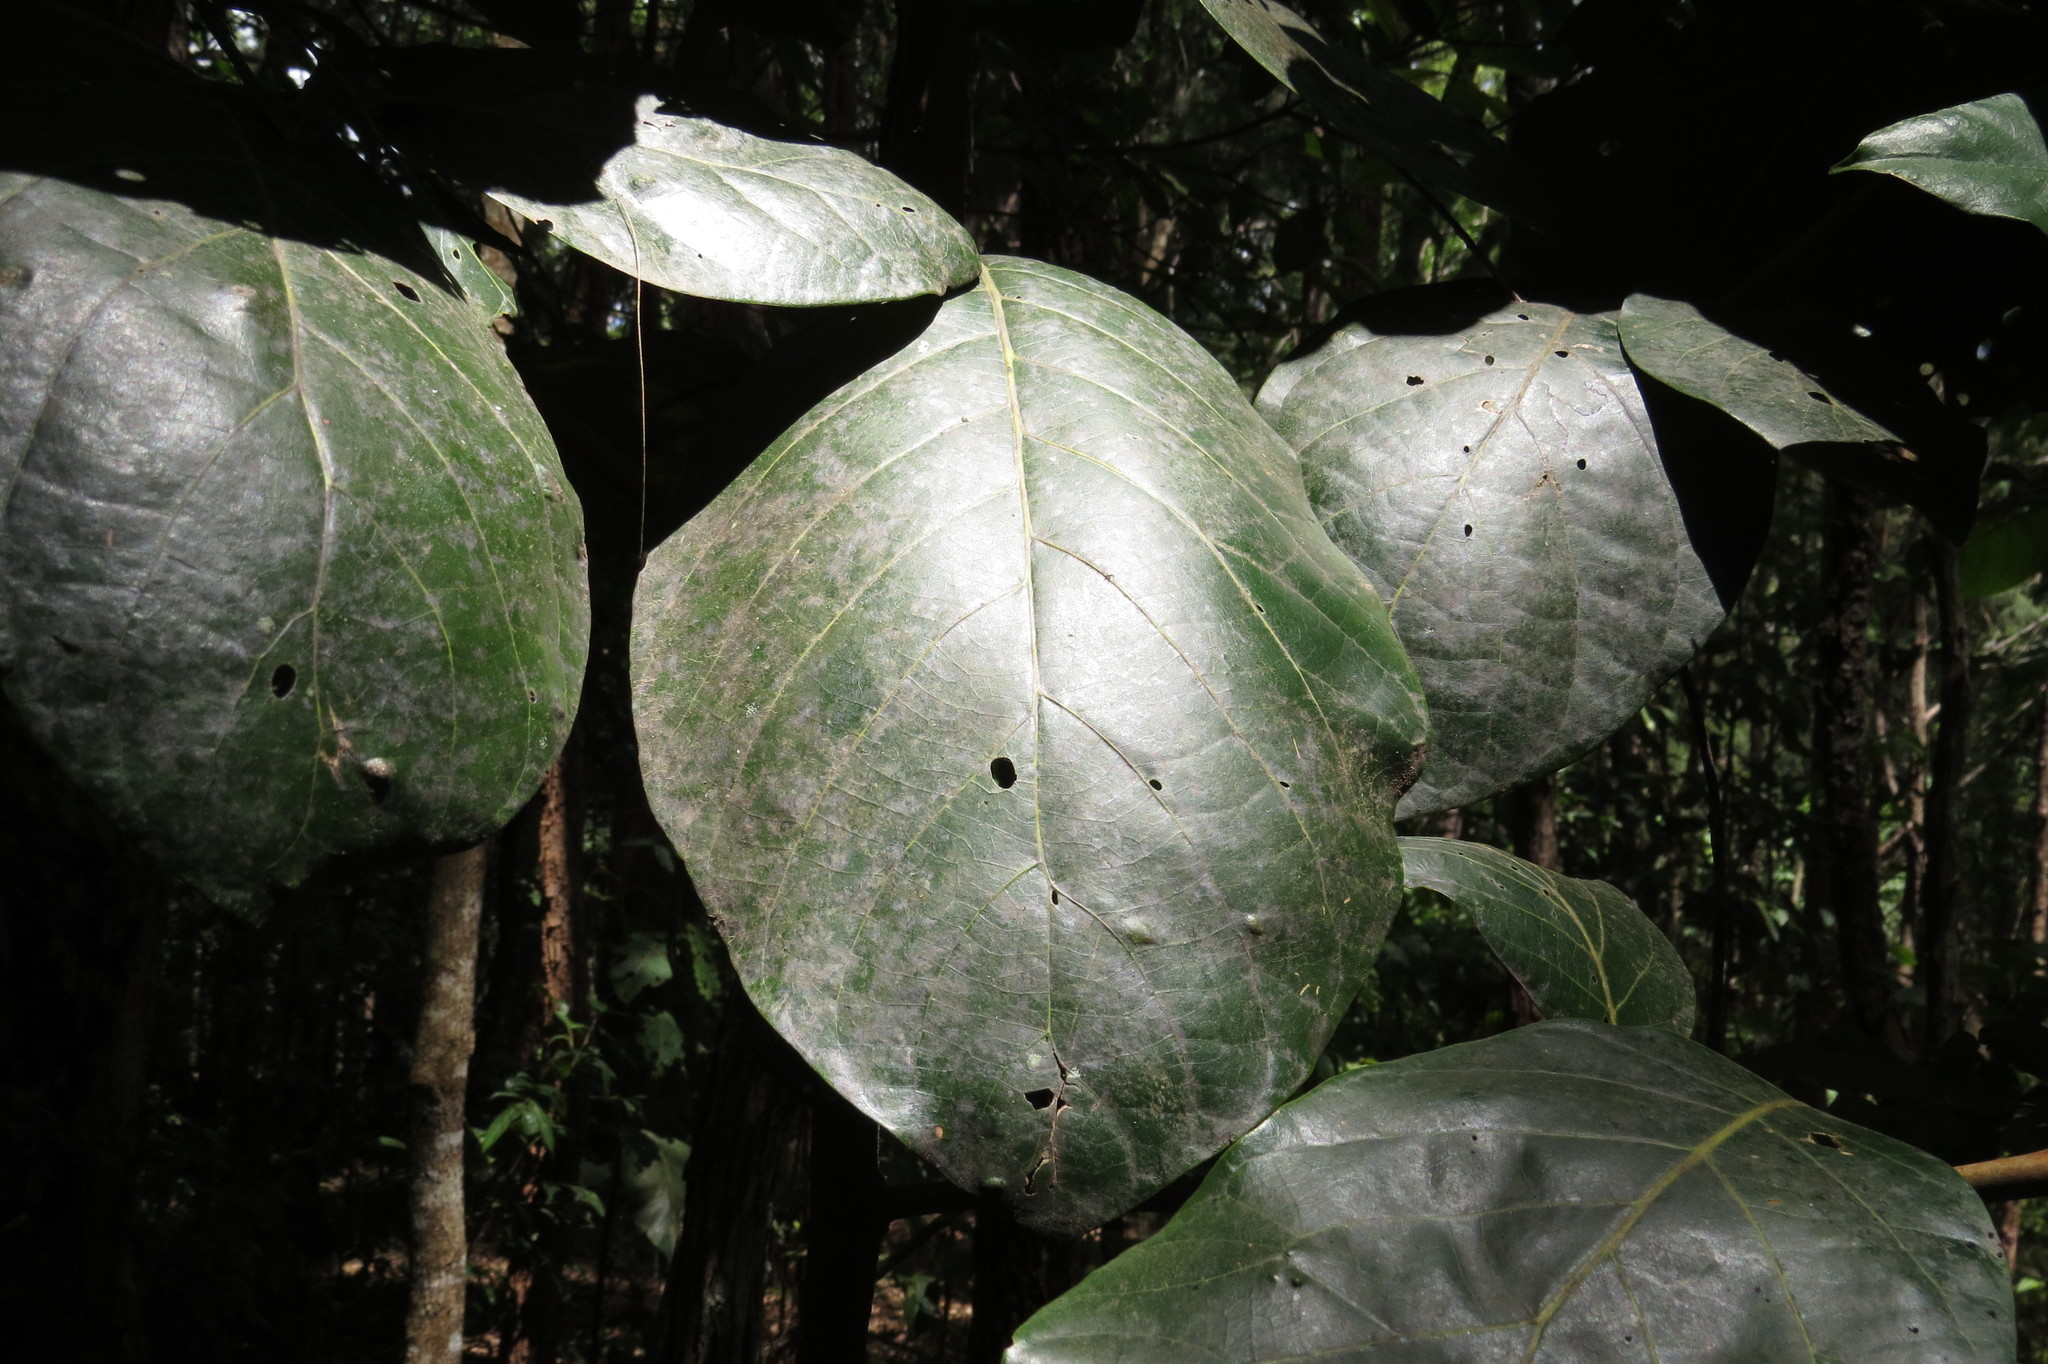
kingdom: Plantae
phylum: Tracheophyta
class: Magnoliopsida
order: Laurales
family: Lauraceae
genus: Litsea
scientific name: Litsea bindoniana
